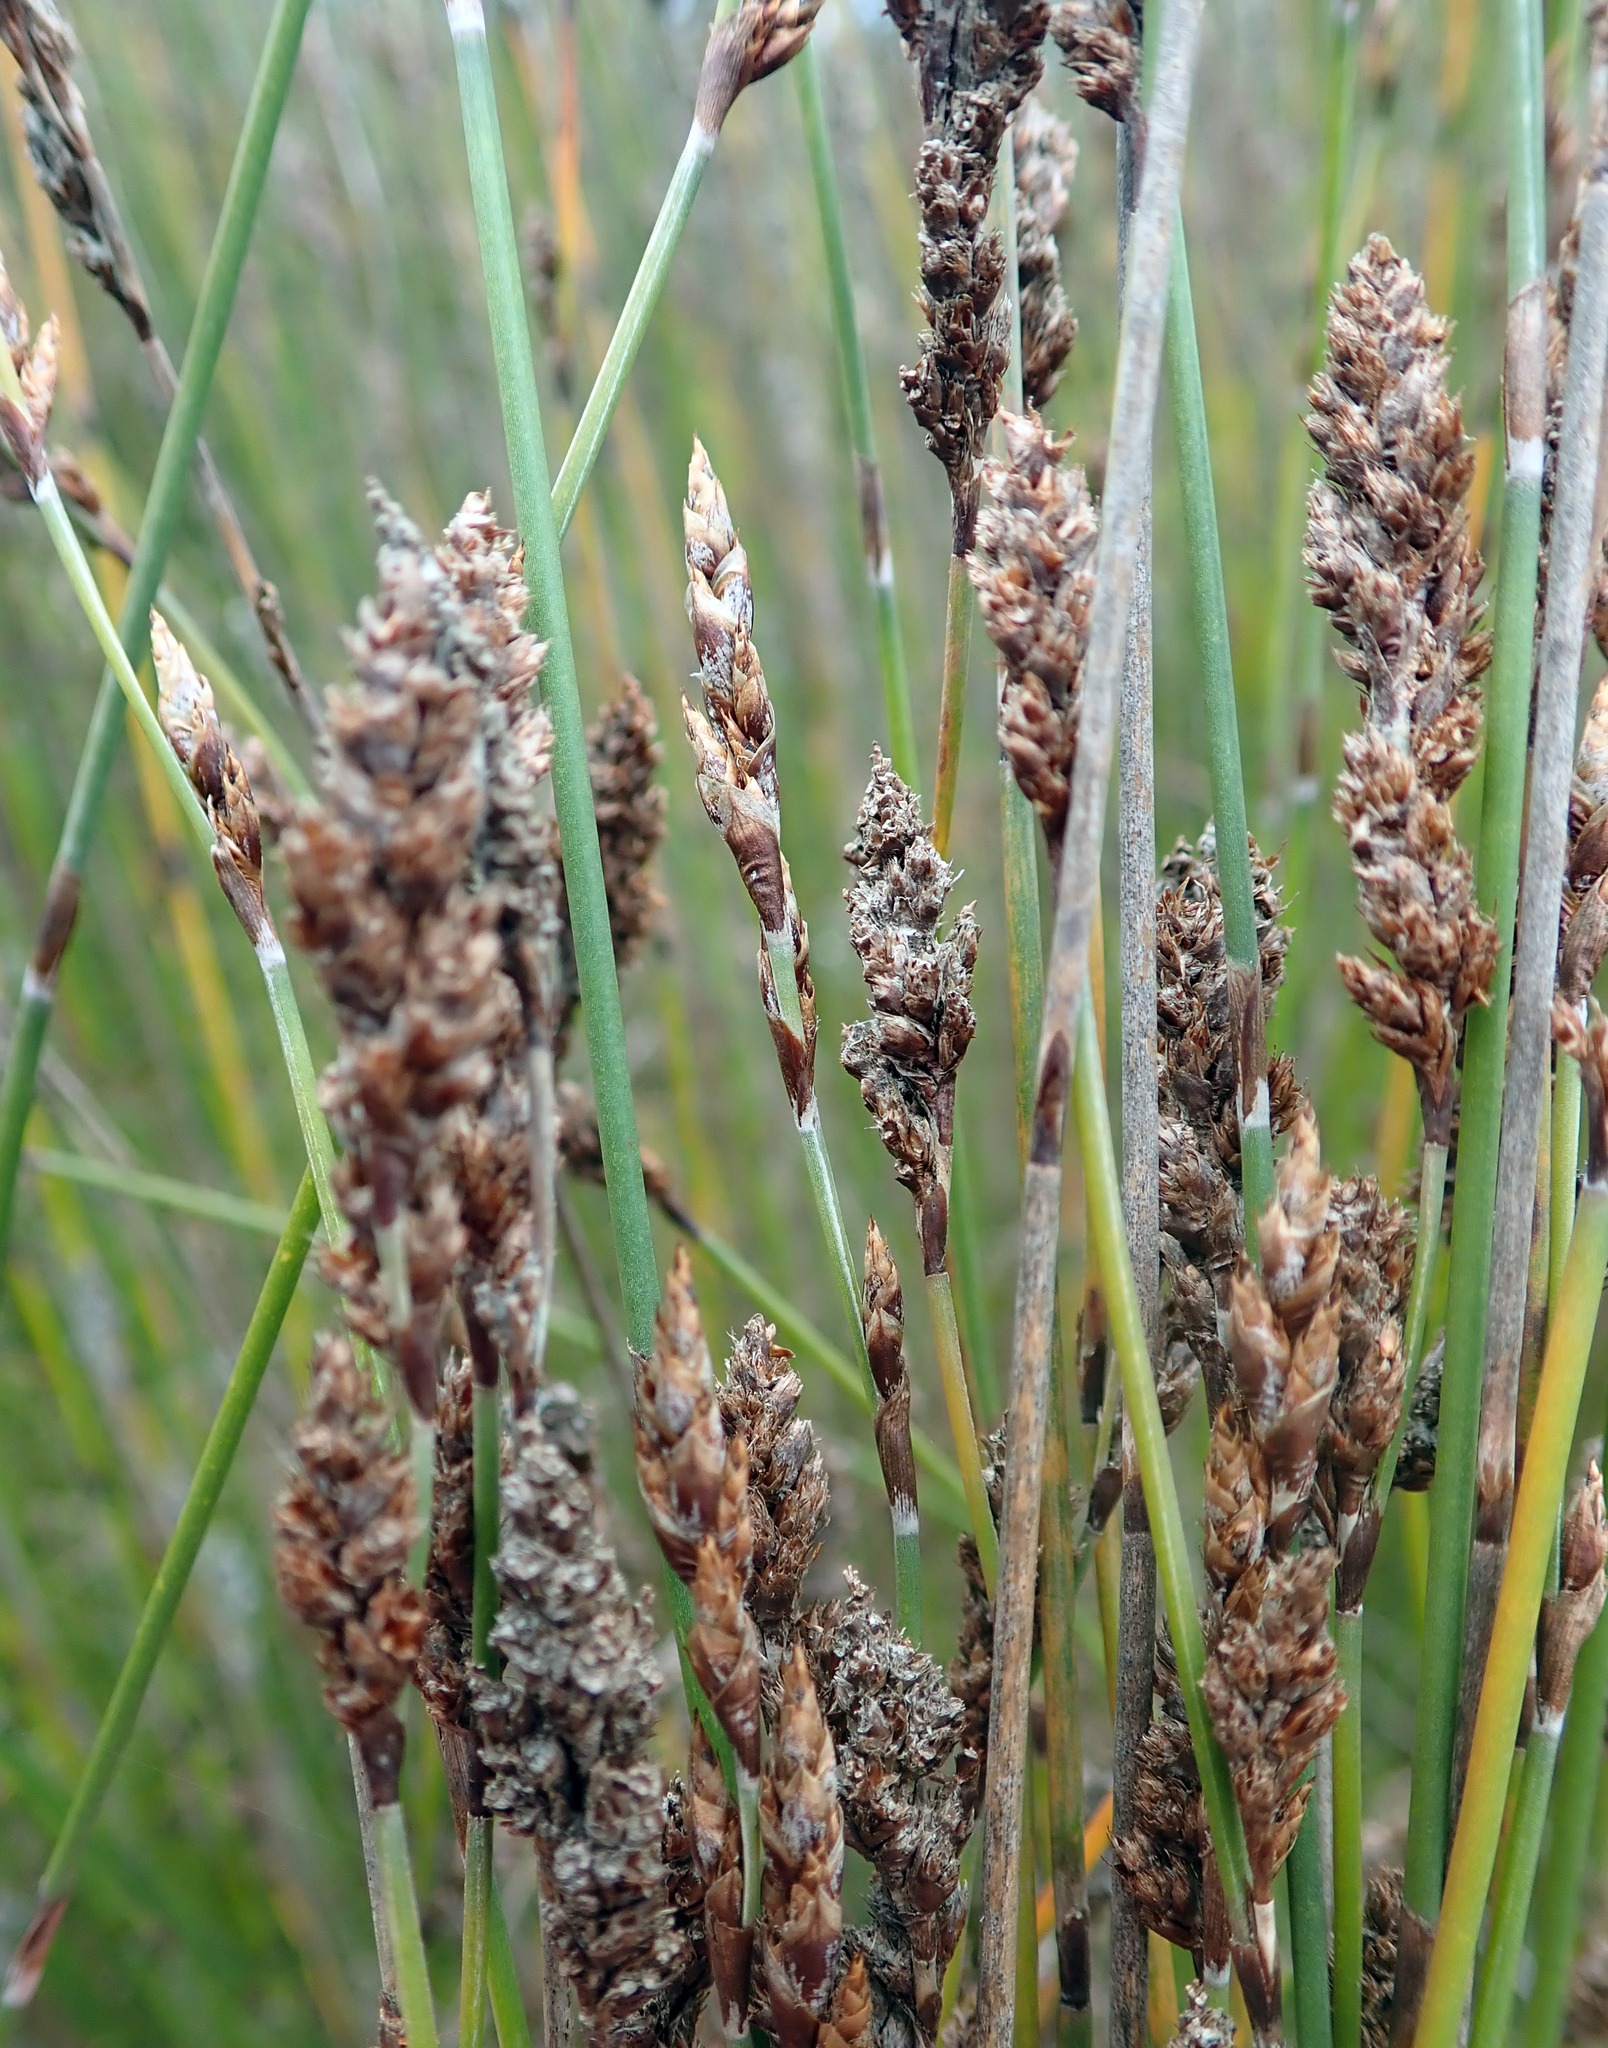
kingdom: Plantae
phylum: Tracheophyta
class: Liliopsida
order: Poales
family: Restionaceae
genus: Apodasmia
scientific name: Apodasmia similis
